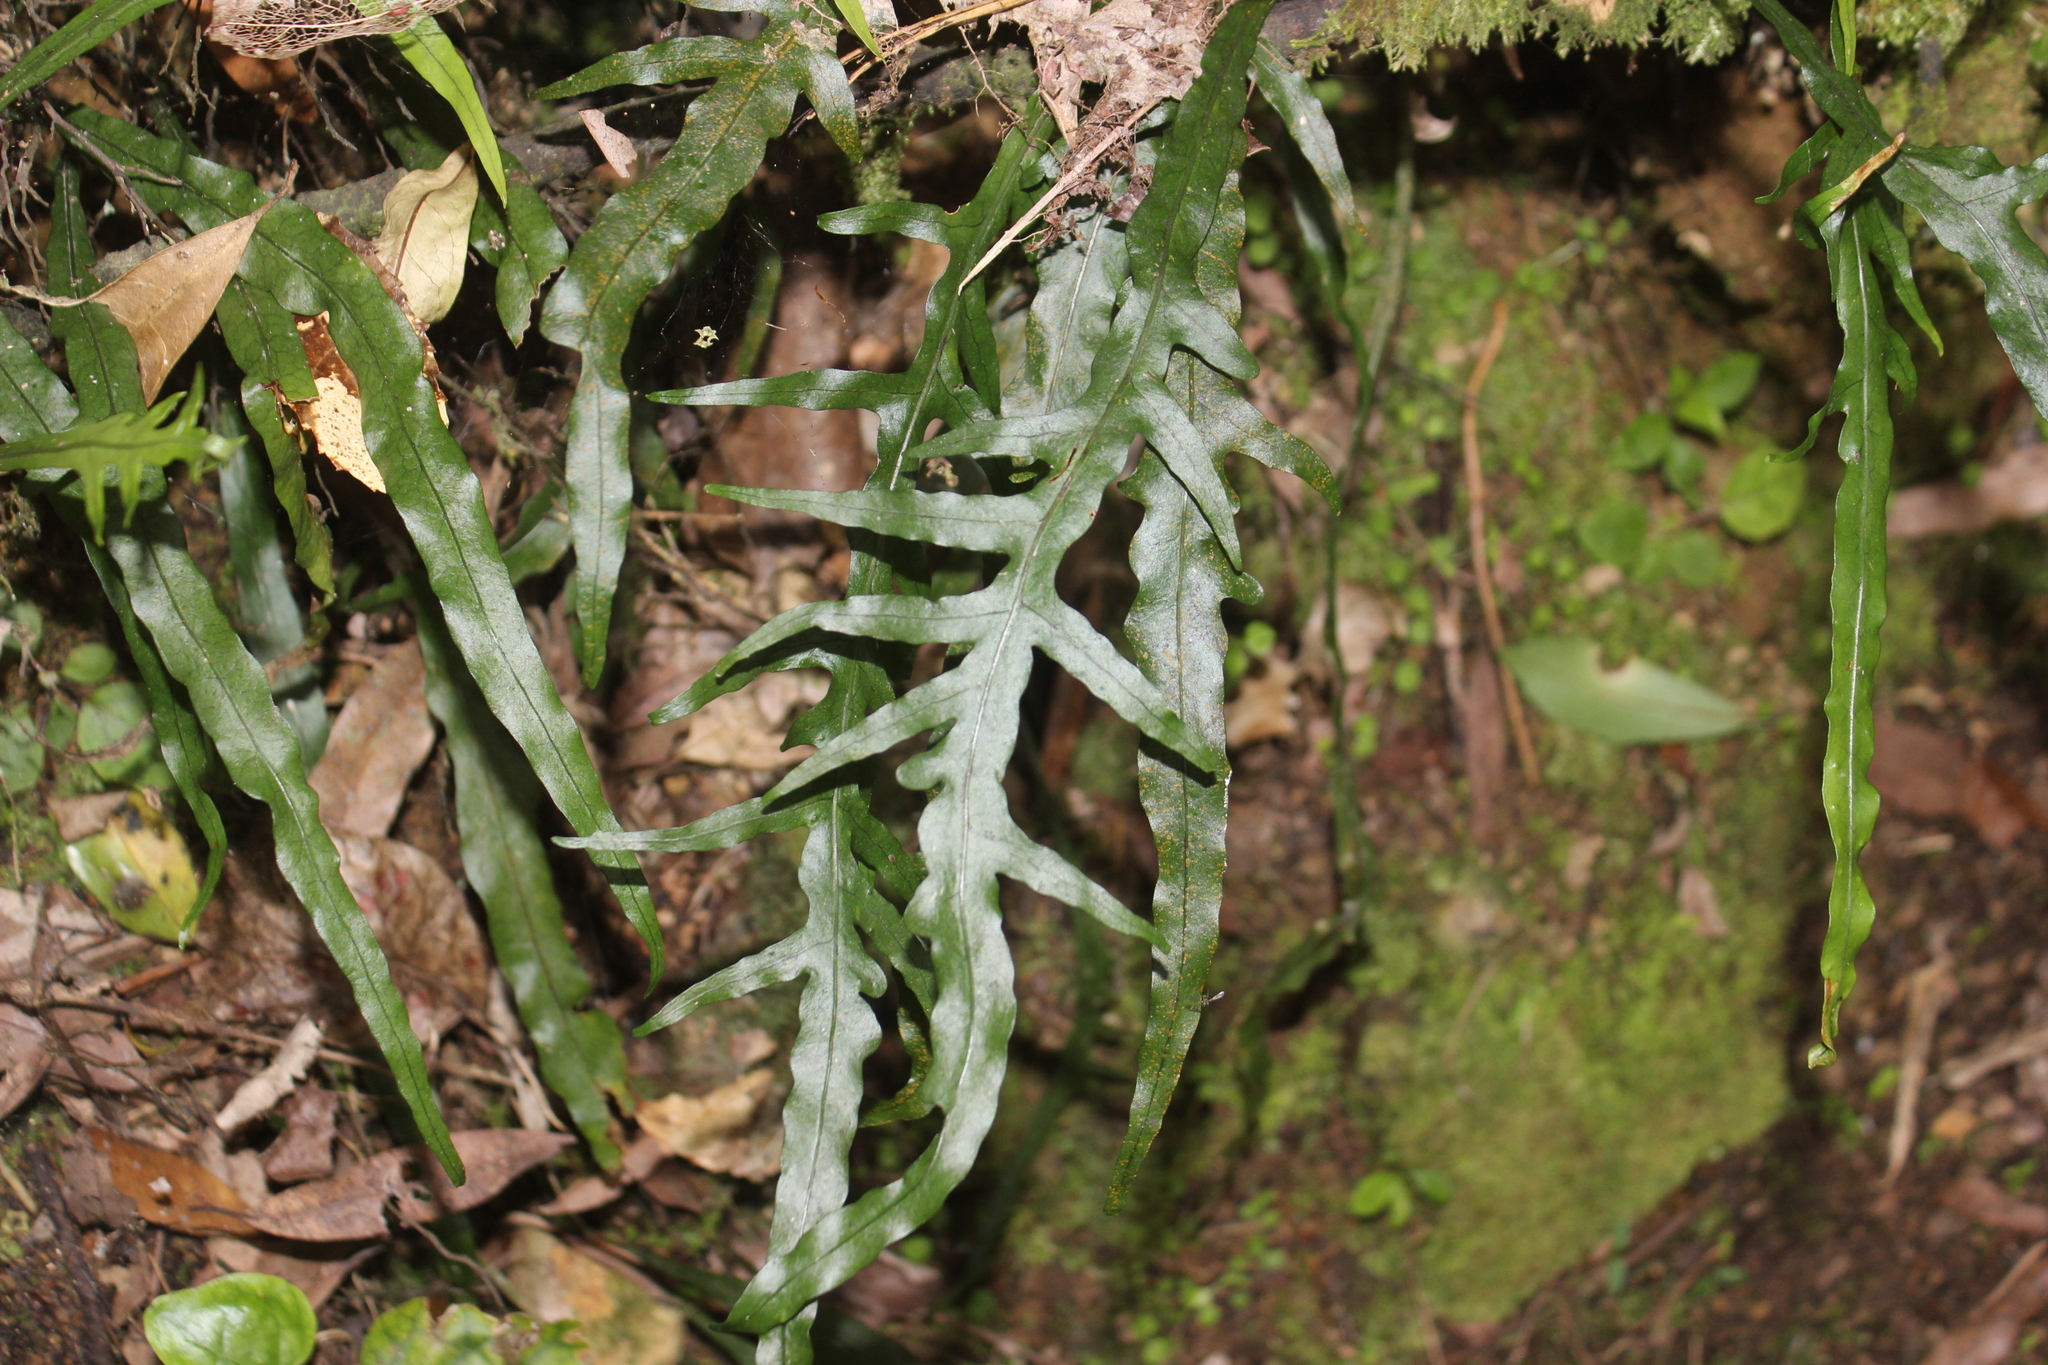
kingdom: Plantae
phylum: Tracheophyta
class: Polypodiopsida
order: Polypodiales
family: Polypodiaceae
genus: Lecanopteris
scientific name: Lecanopteris scandens
